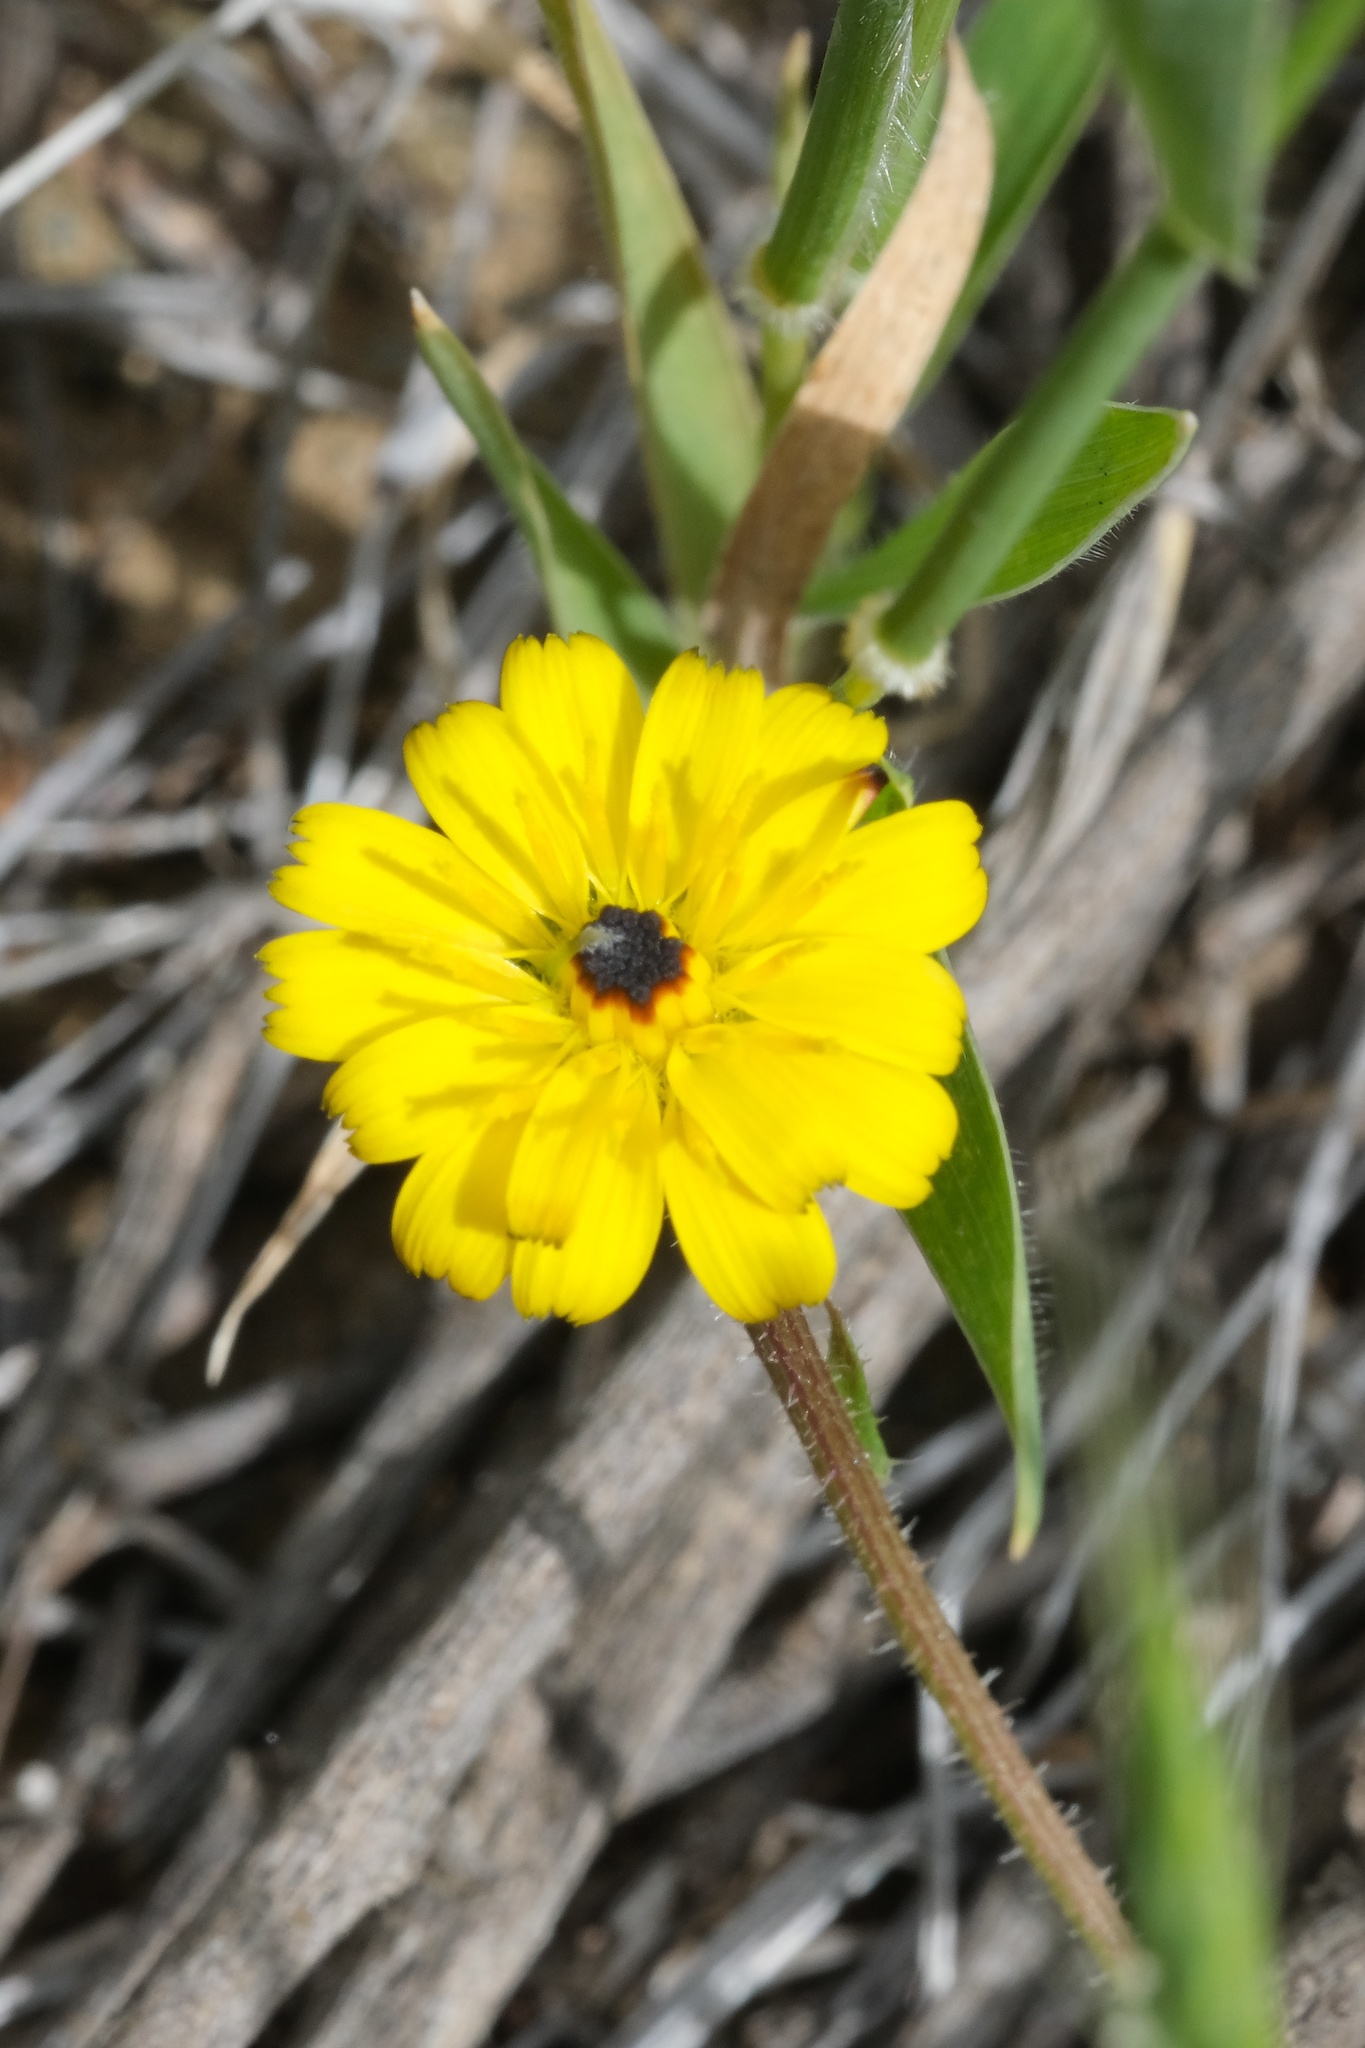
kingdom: Plantae
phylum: Tracheophyta
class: Magnoliopsida
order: Asterales
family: Asteraceae
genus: Hedypnois
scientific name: Hedypnois rhagadioloides
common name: Cretan weed
